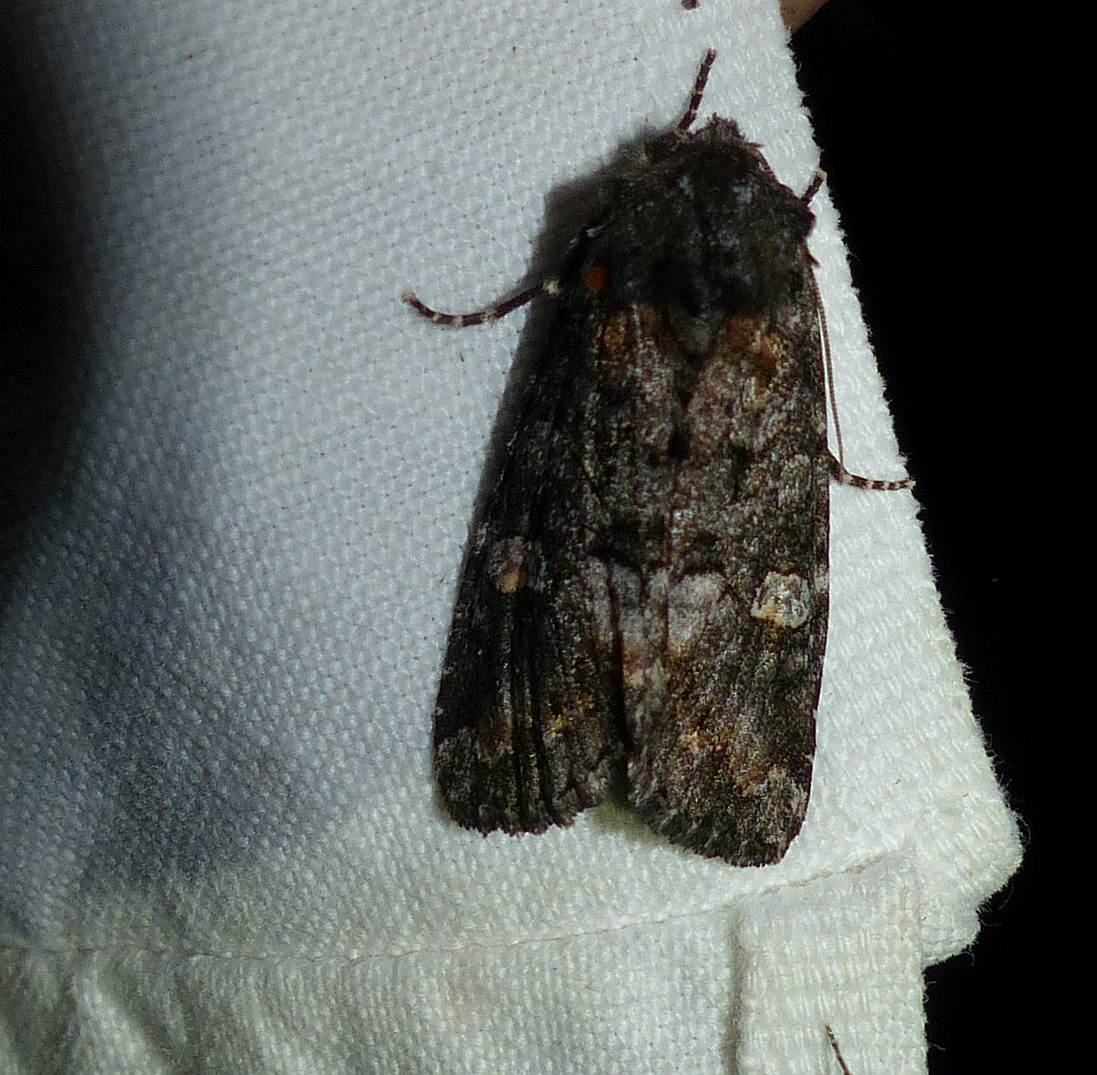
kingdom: Animalia
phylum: Arthropoda
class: Insecta
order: Lepidoptera
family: Noctuidae
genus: Spiramater
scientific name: Spiramater lutra
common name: Otter spiramater moth
